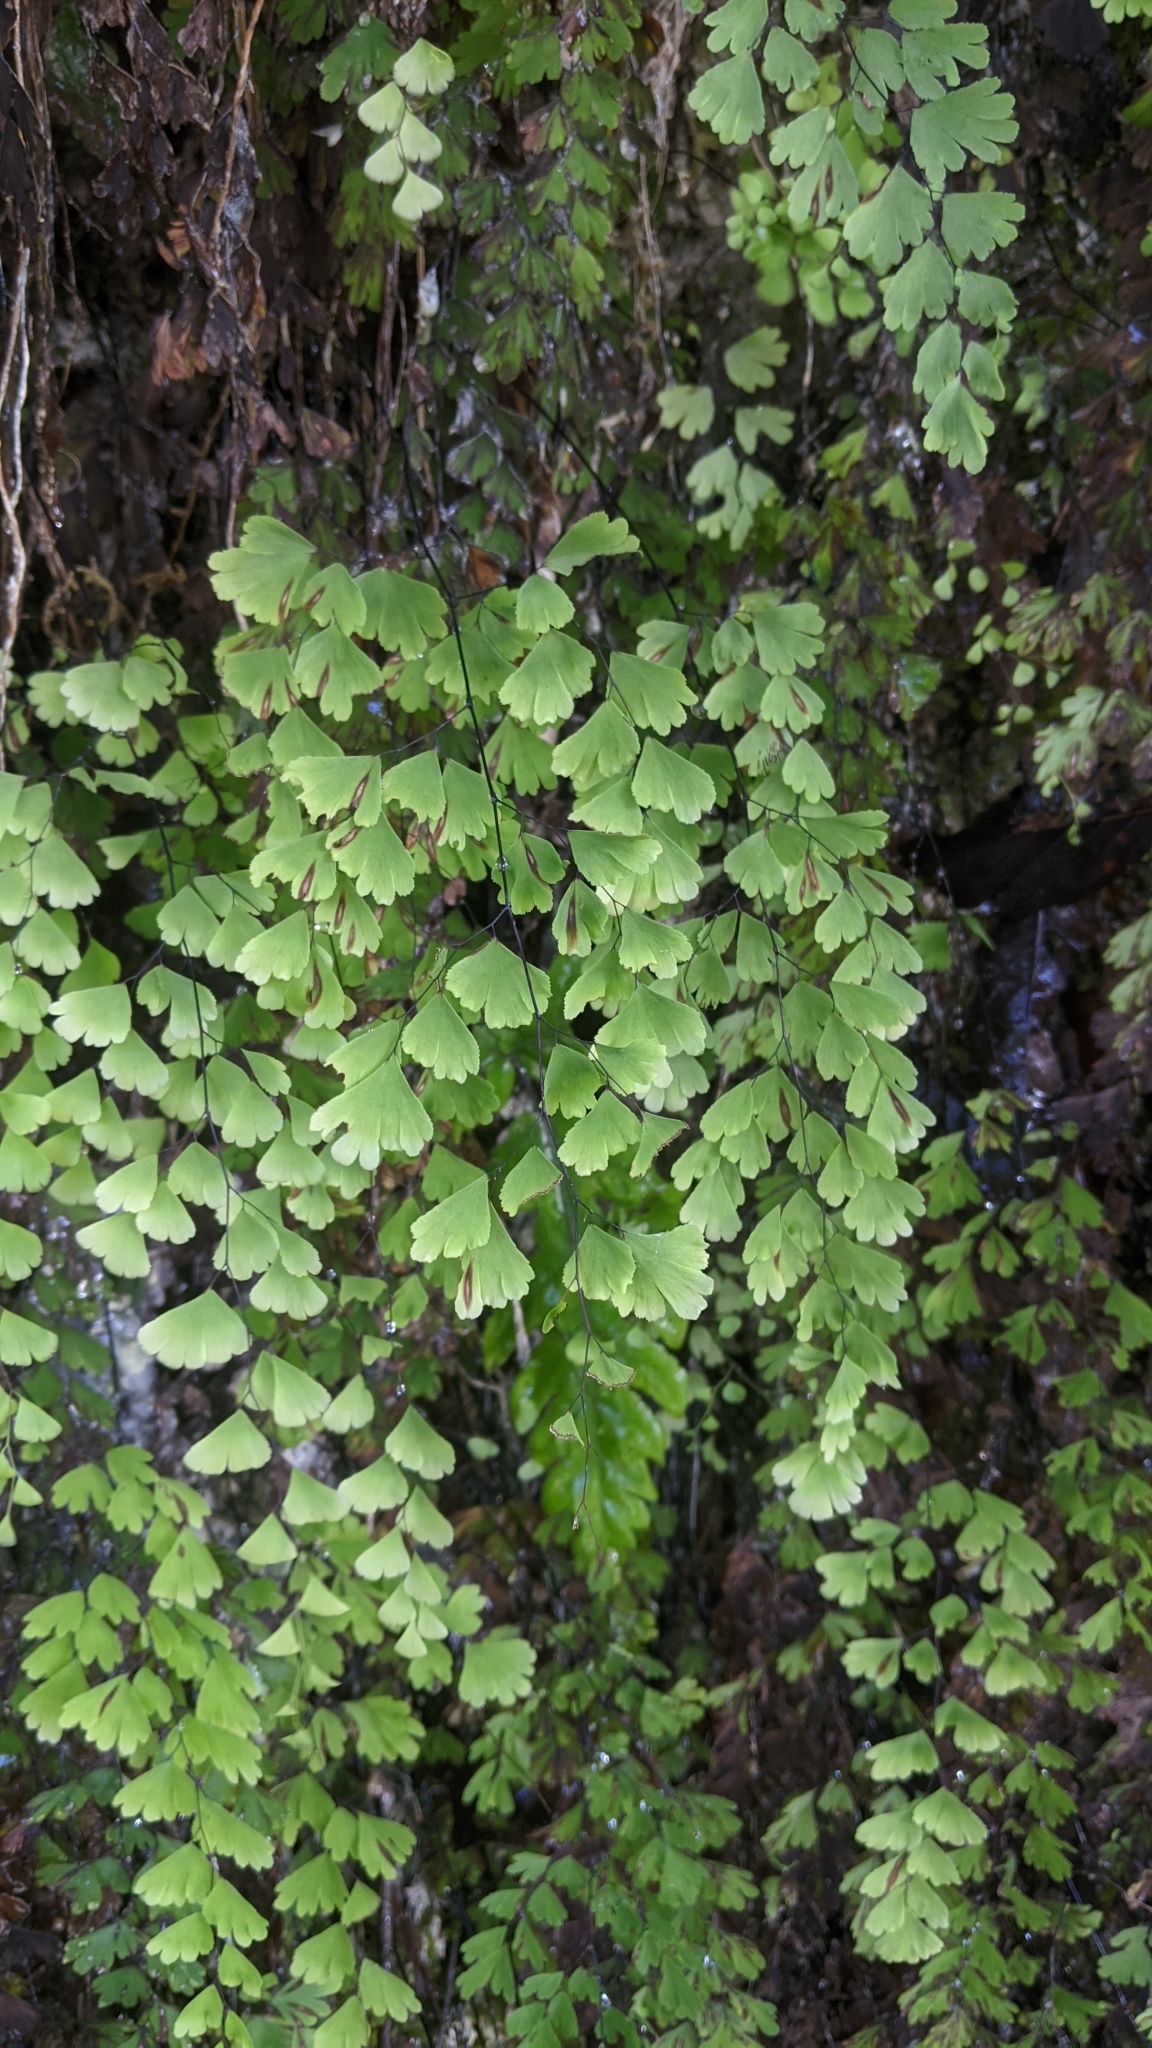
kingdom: Plantae
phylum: Tracheophyta
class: Polypodiopsida
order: Polypodiales
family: Pteridaceae
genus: Adiantum
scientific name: Adiantum capillus-veneris
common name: Maidenhair fern
